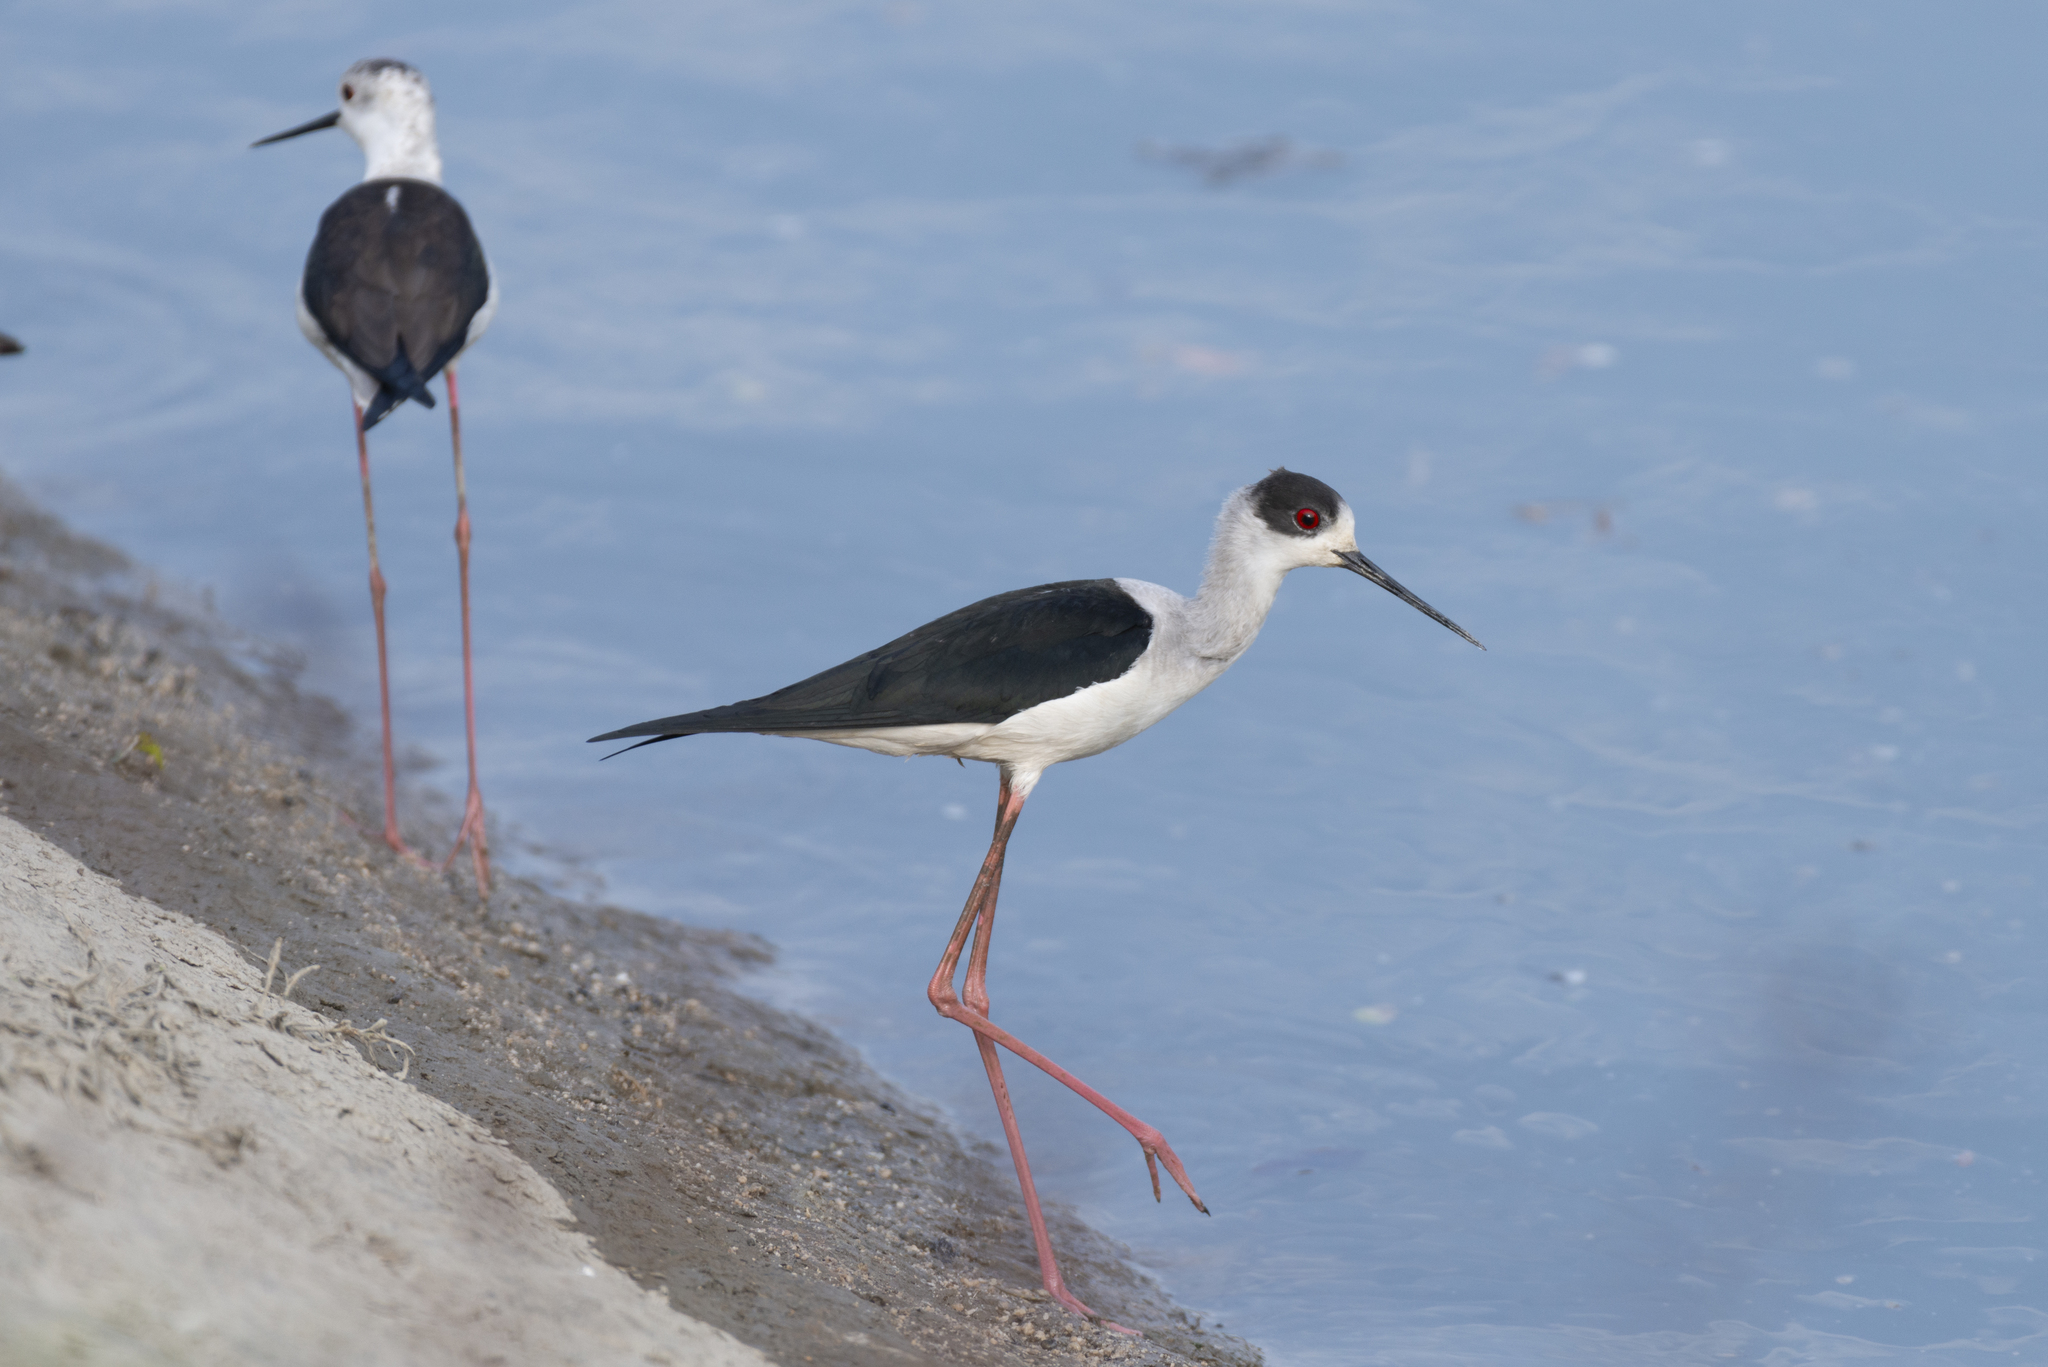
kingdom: Animalia
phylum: Chordata
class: Aves
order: Charadriiformes
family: Recurvirostridae
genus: Himantopus
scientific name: Himantopus himantopus
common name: Black-winged stilt
